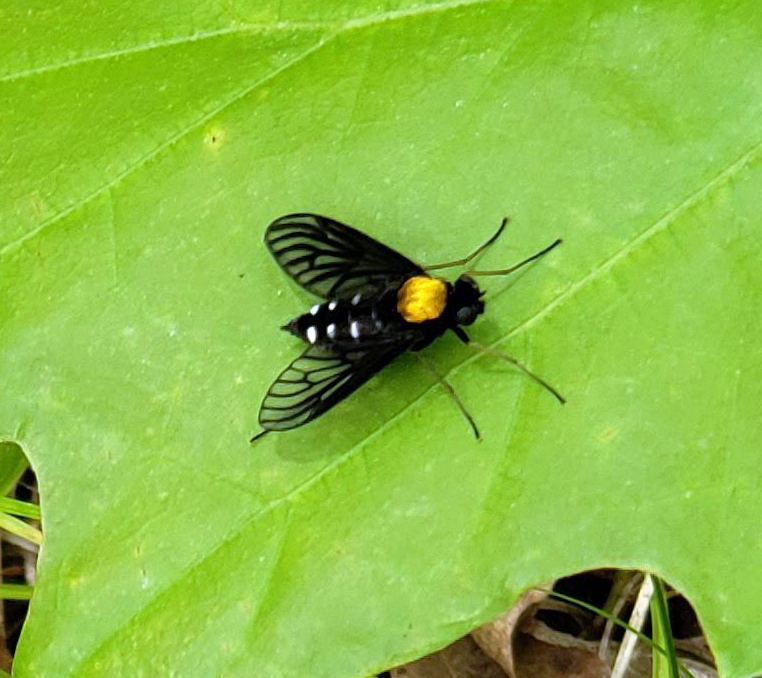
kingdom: Animalia
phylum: Arthropoda
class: Insecta
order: Diptera
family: Rhagionidae
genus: Chrysopilus
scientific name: Chrysopilus thoracicus
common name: Golden-backed snipe fly
